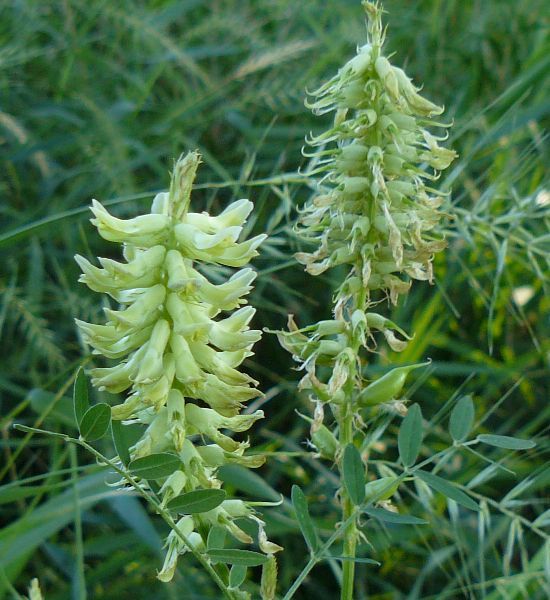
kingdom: Plantae
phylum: Tracheophyta
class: Magnoliopsida
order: Fabales
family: Fabaceae
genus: Astragalus
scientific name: Astragalus canadensis
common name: Canada milk-vetch
